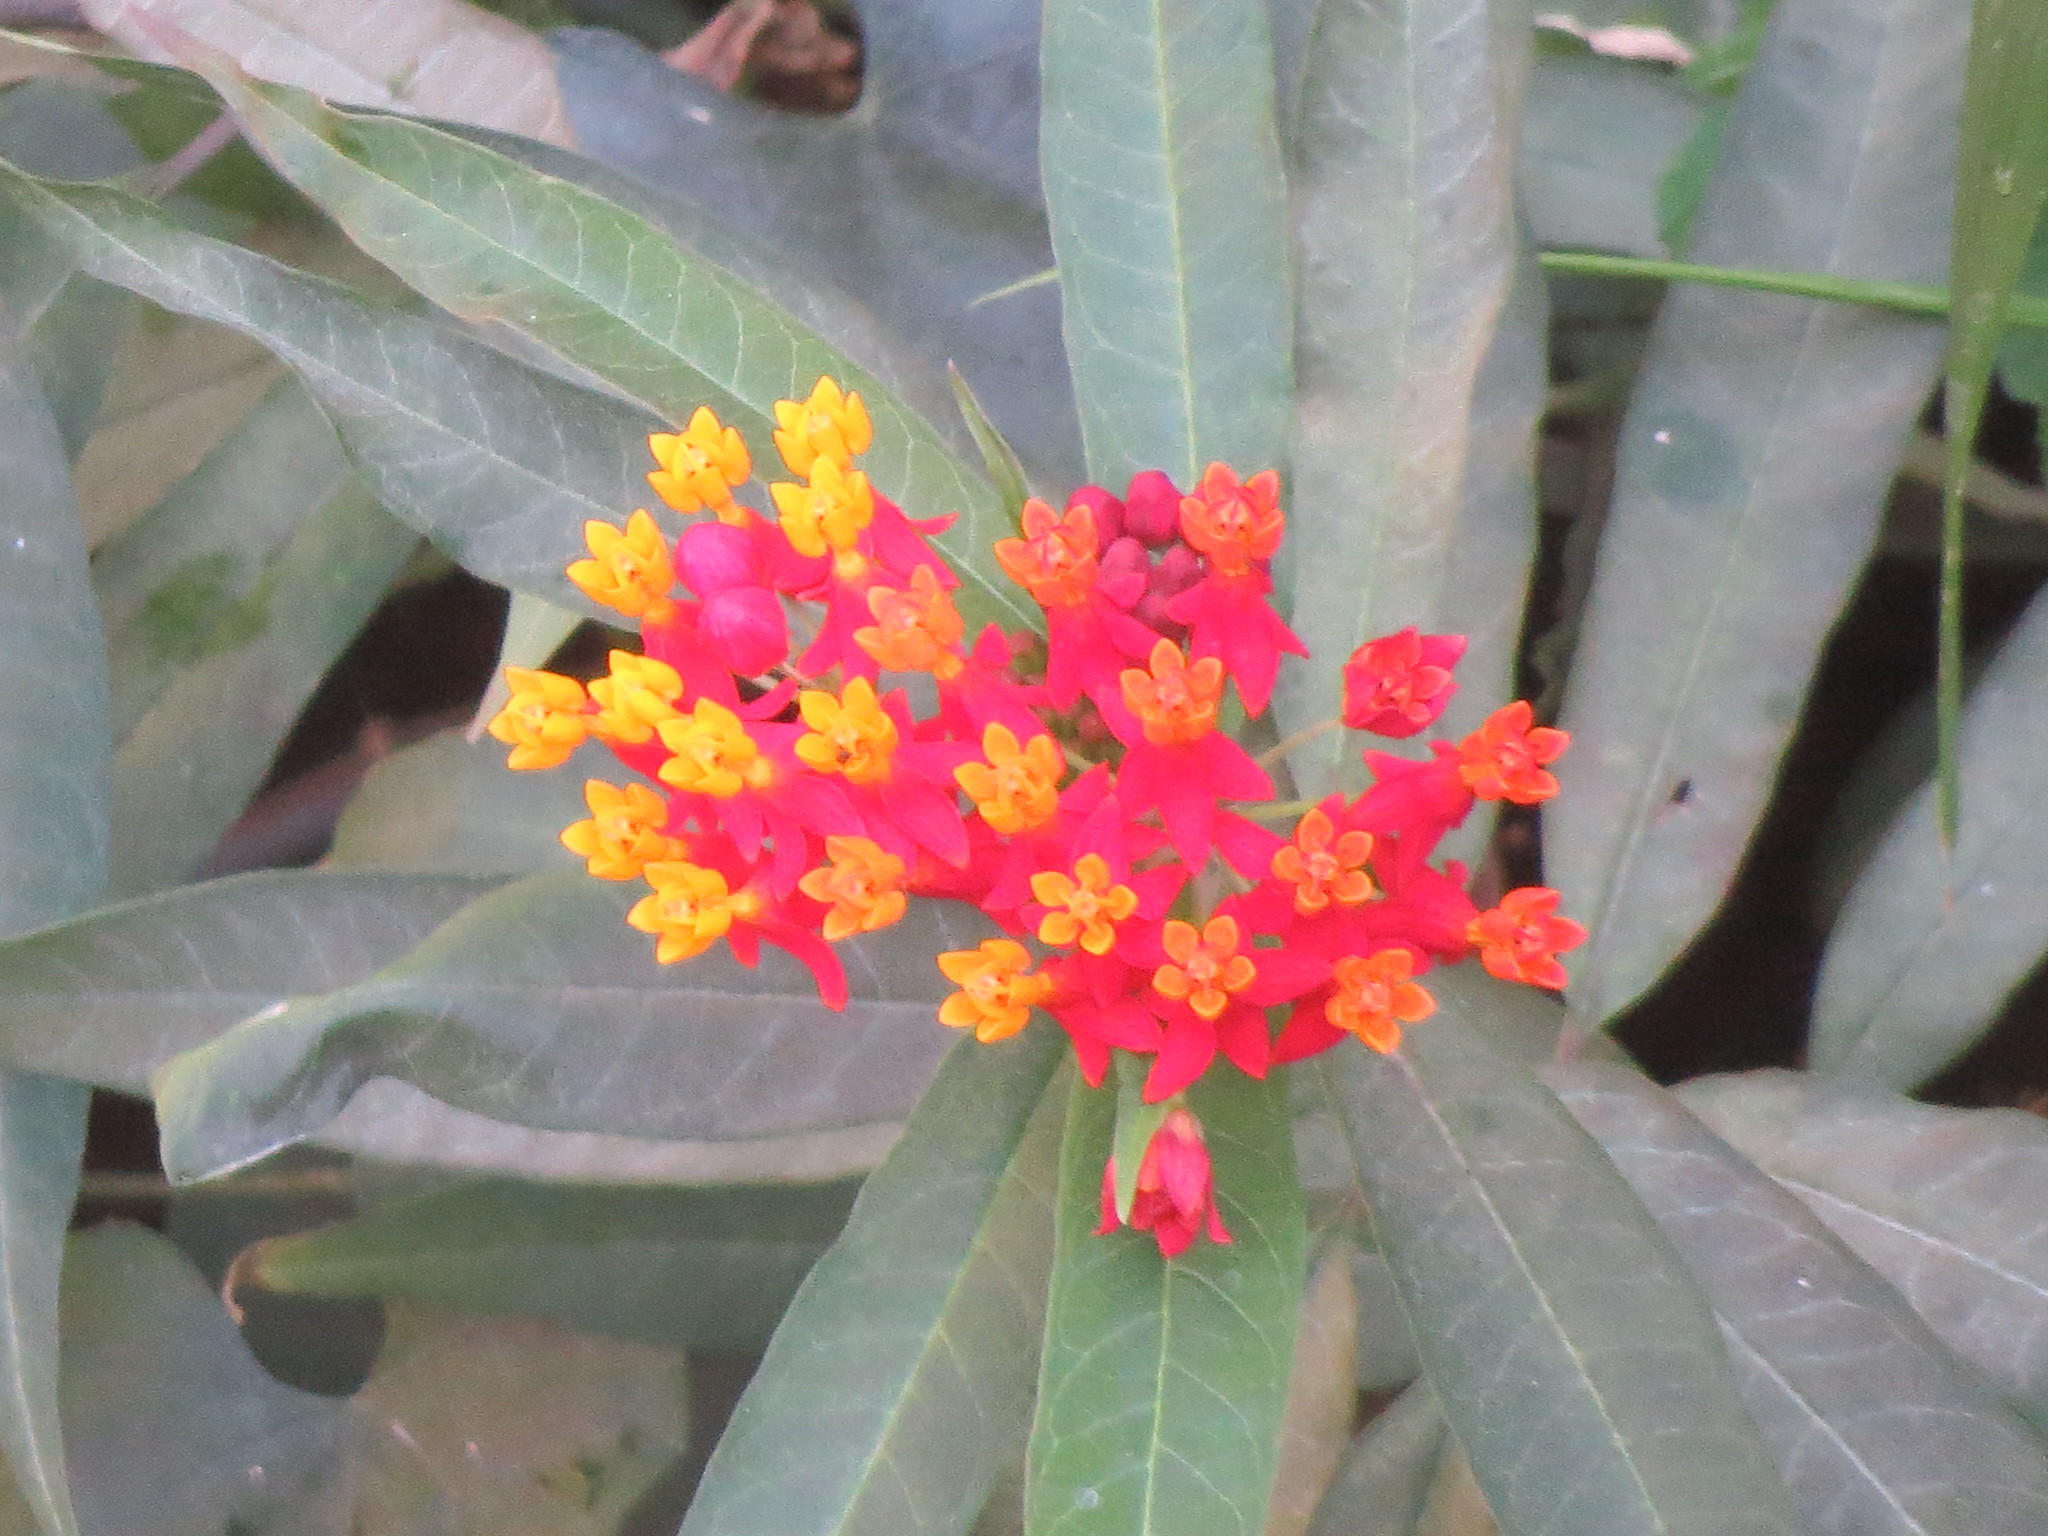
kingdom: Plantae
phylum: Tracheophyta
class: Magnoliopsida
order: Gentianales
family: Apocynaceae
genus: Asclepias
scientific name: Asclepias curassavica
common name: Bloodflower
